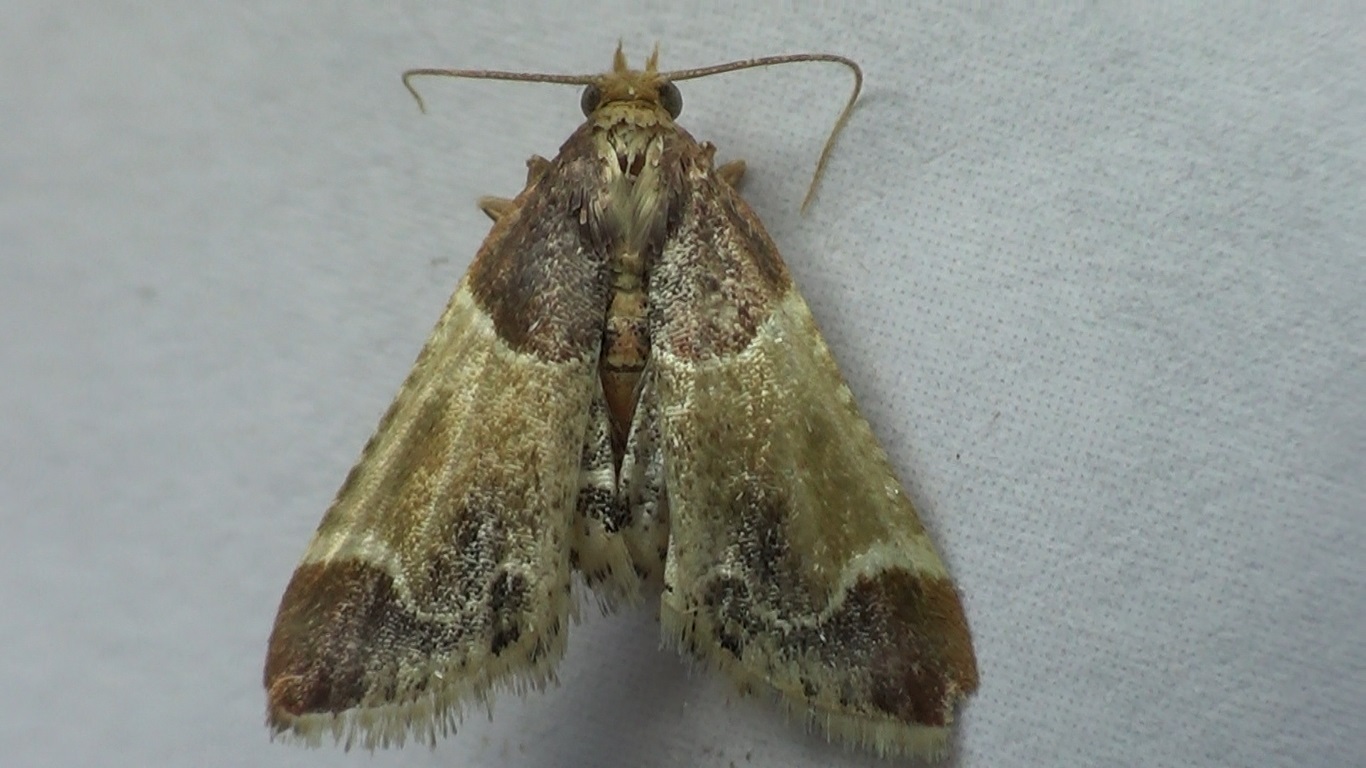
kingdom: Animalia
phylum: Arthropoda
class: Insecta
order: Lepidoptera
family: Pyralidae
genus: Pyralis
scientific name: Pyralis farinalis
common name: Meal moth
